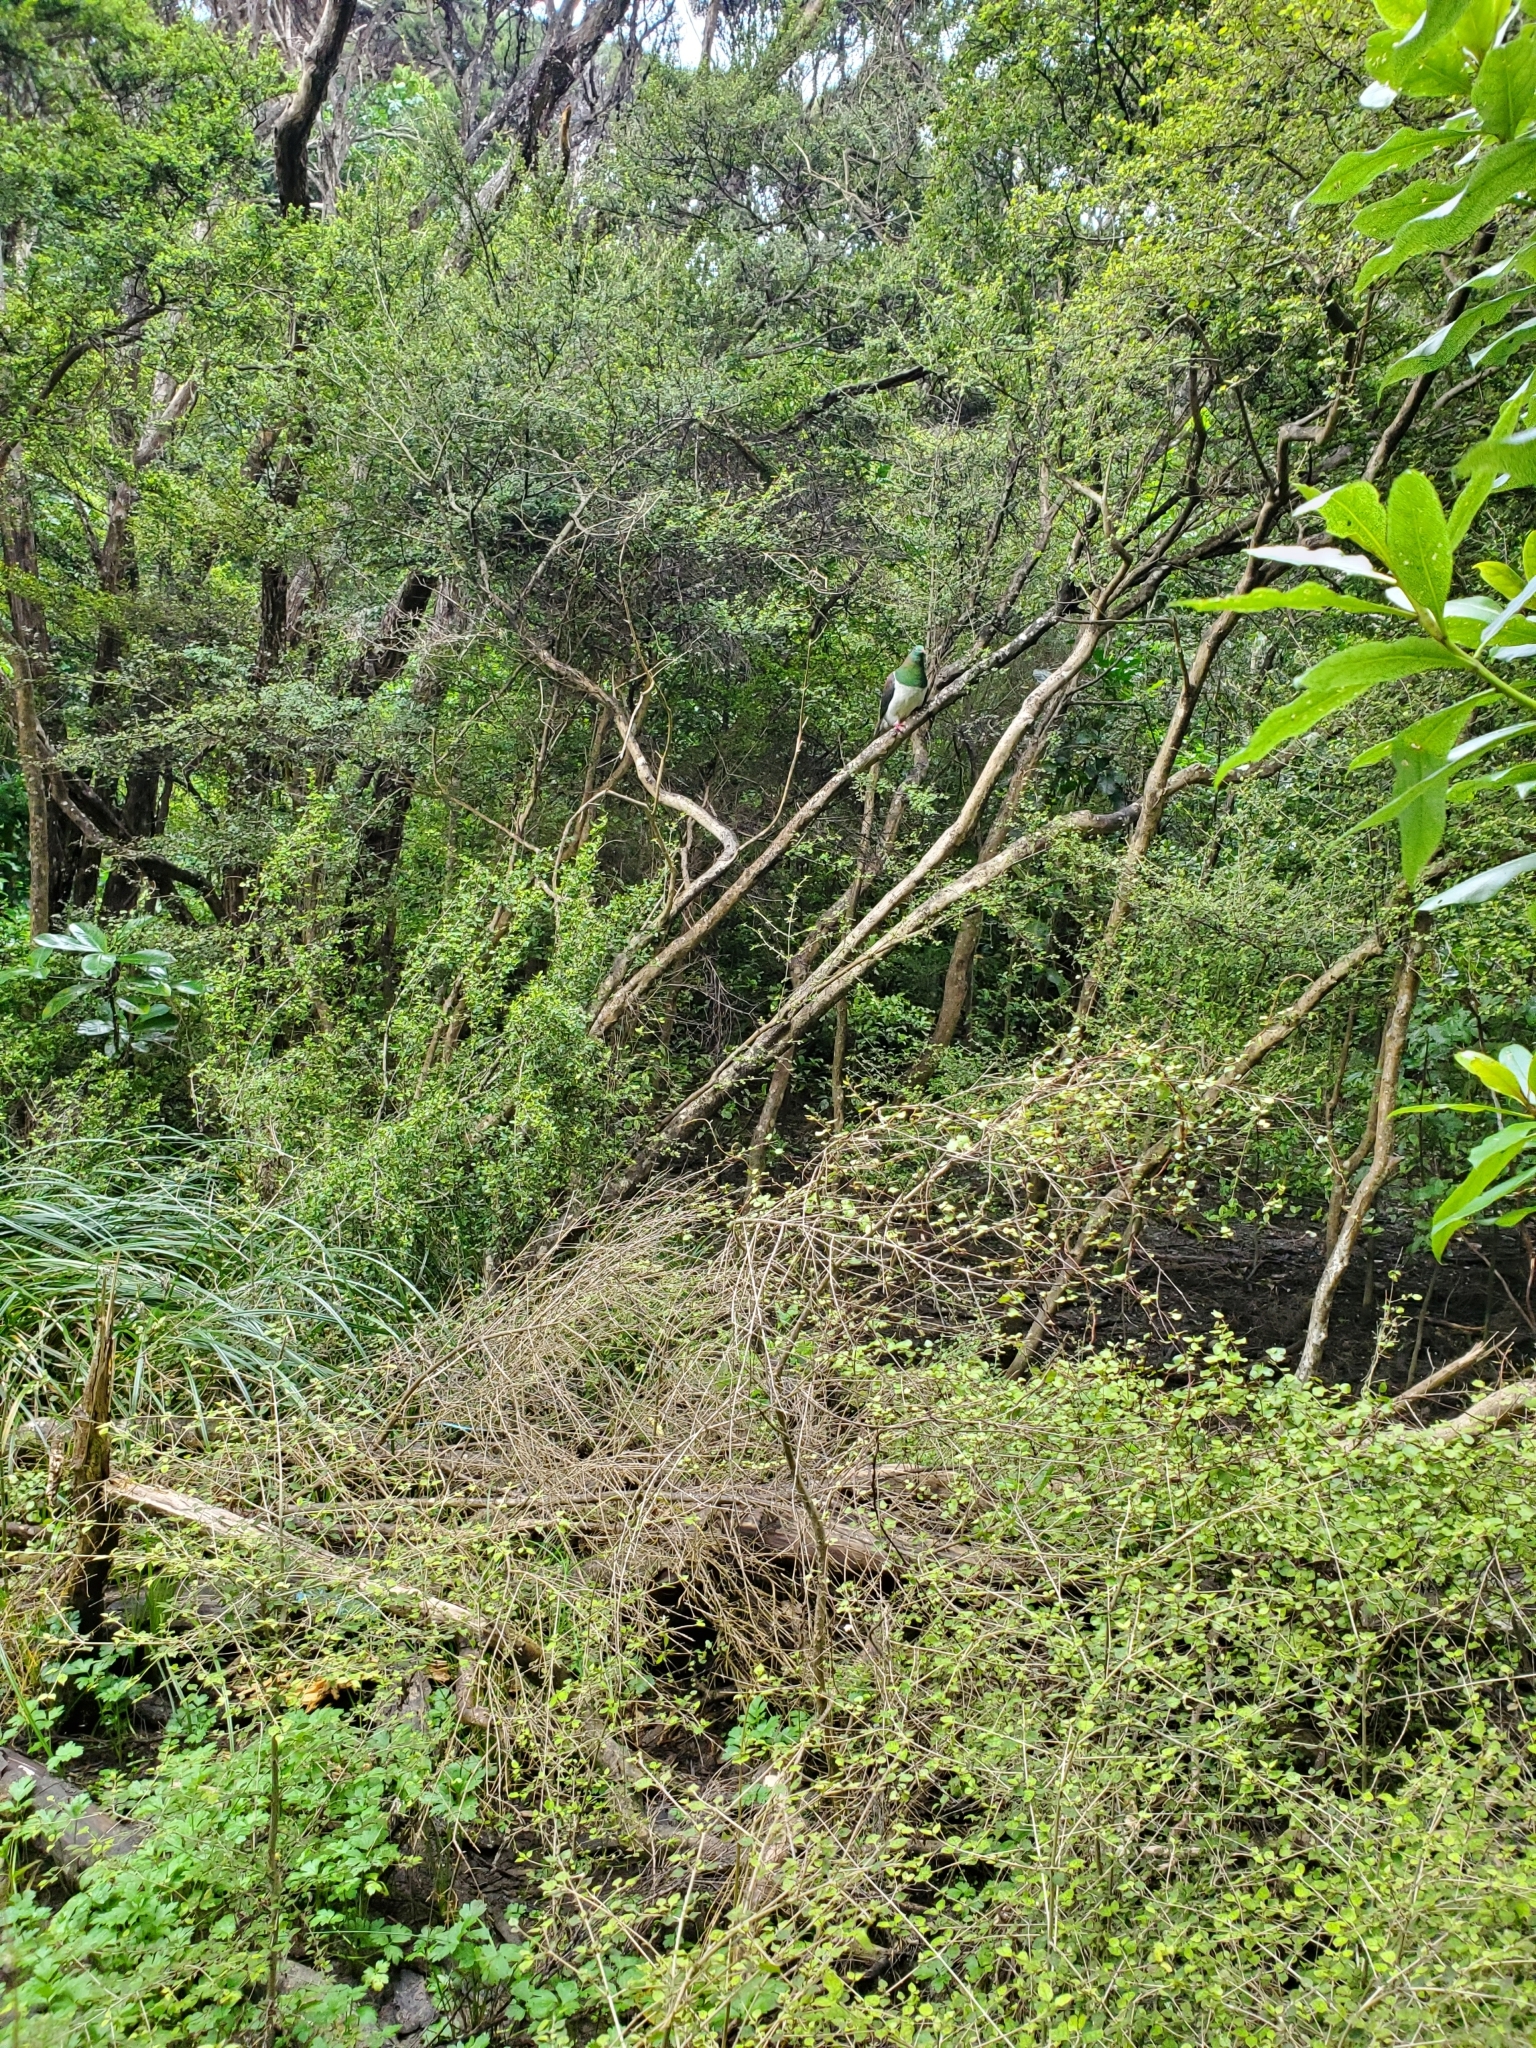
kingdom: Animalia
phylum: Chordata
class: Aves
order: Columbiformes
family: Columbidae
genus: Hemiphaga
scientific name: Hemiphaga novaeseelandiae
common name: New zealand pigeon
